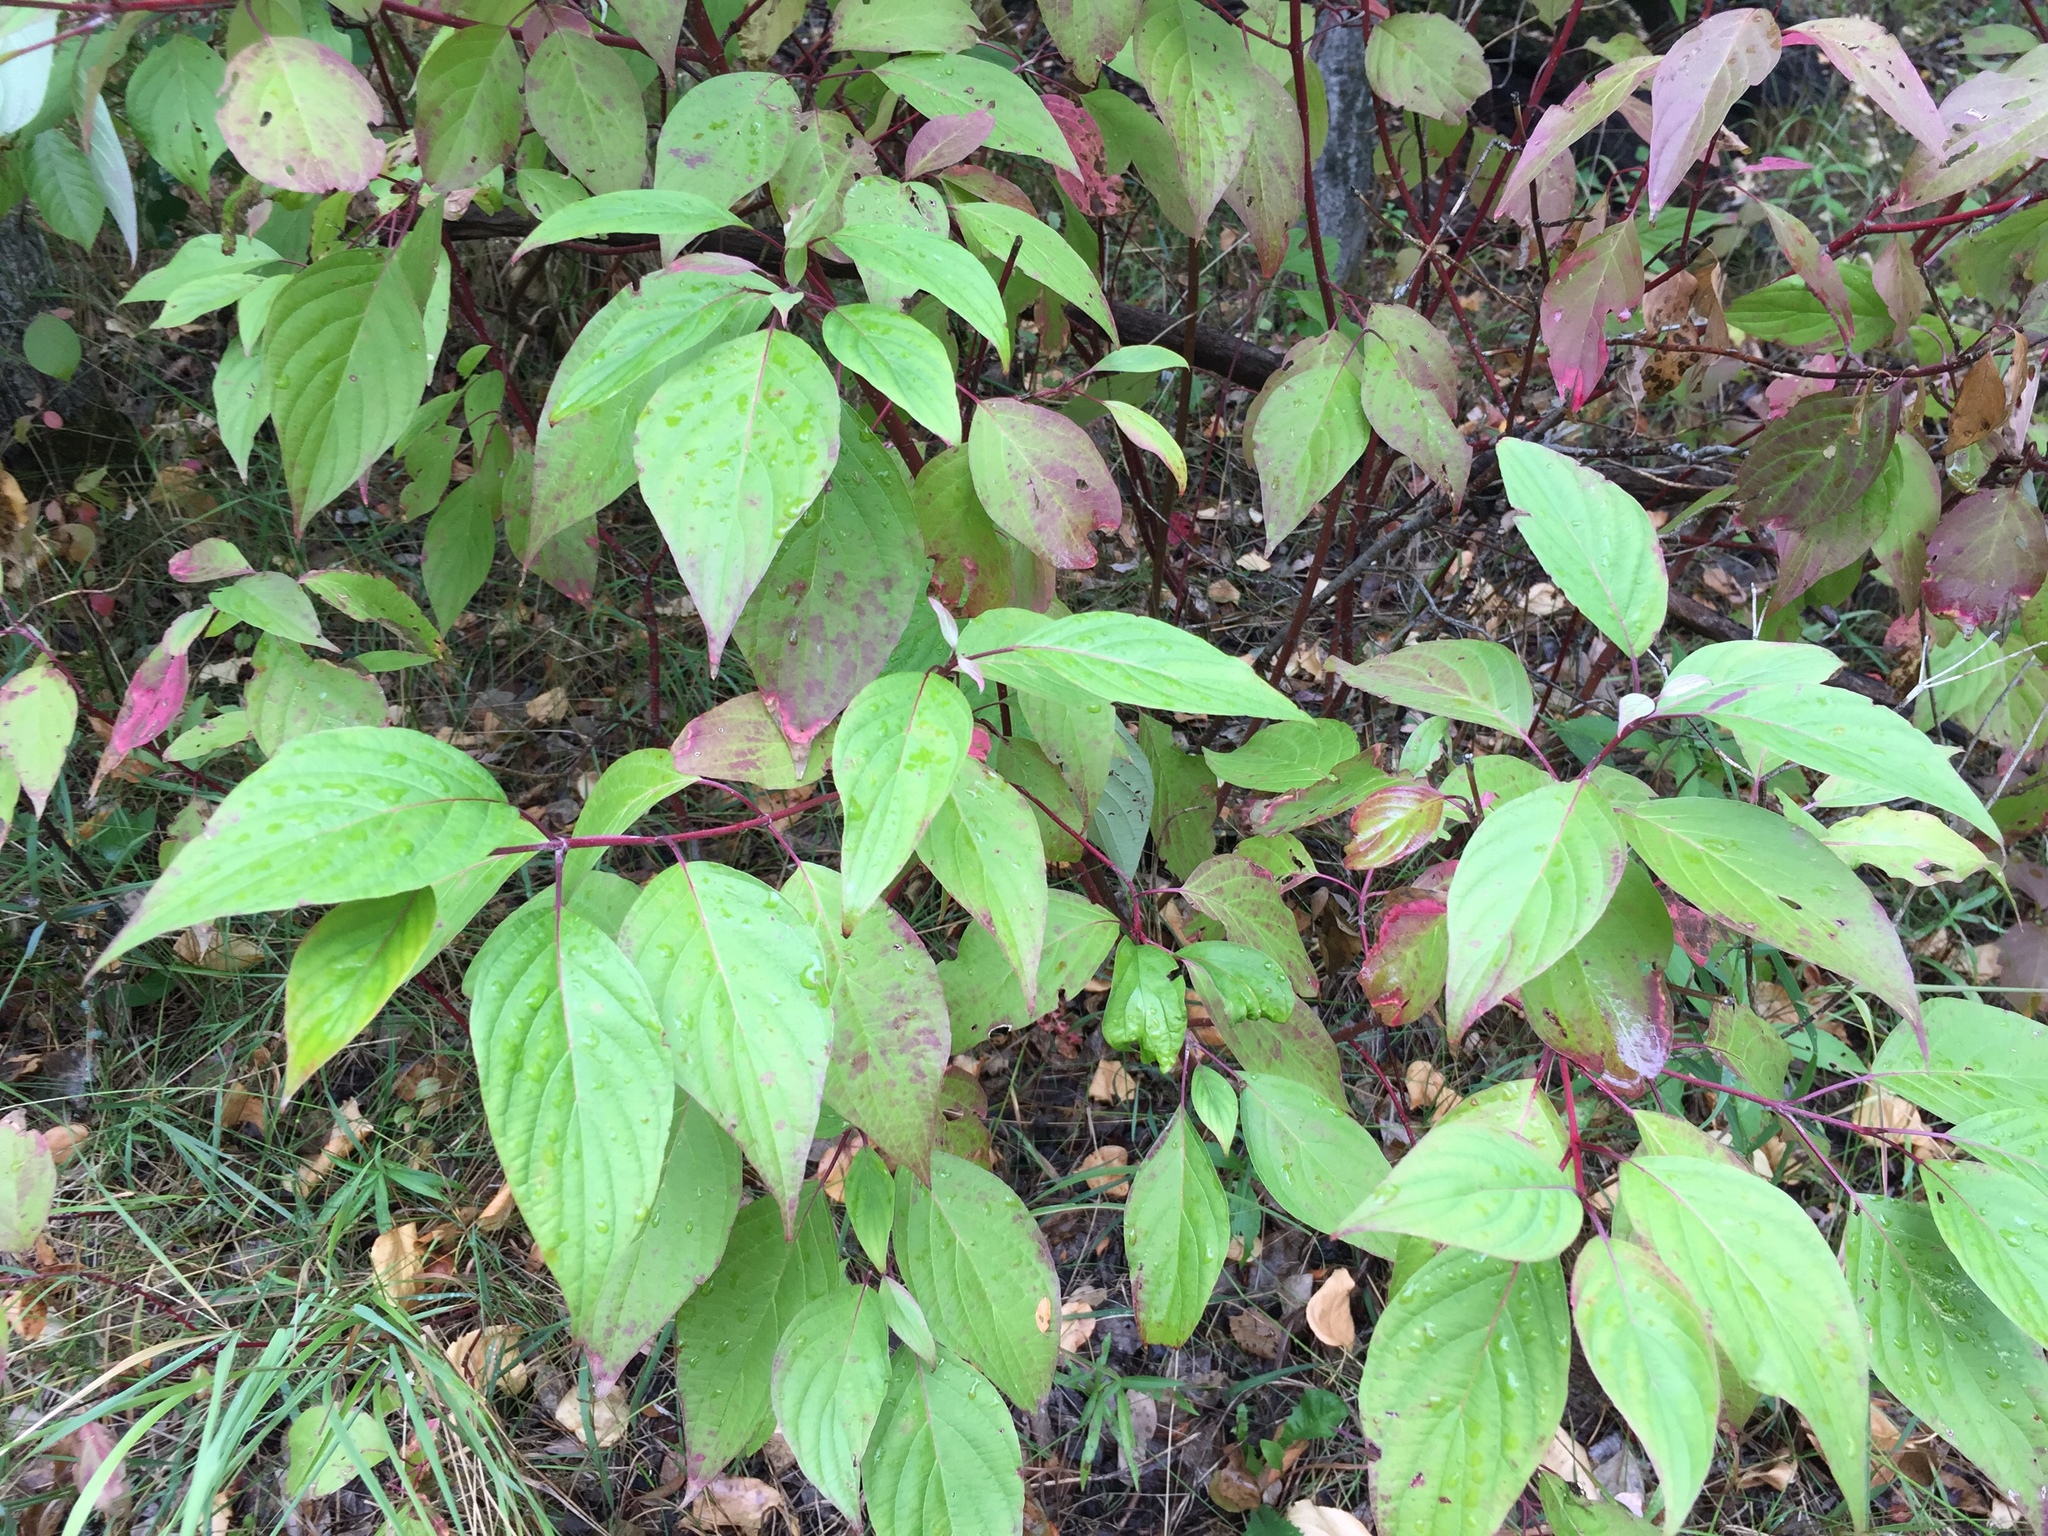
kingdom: Plantae
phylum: Tracheophyta
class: Magnoliopsida
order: Cornales
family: Cornaceae
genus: Cornus
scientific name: Cornus sericea
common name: Red-osier dogwood
